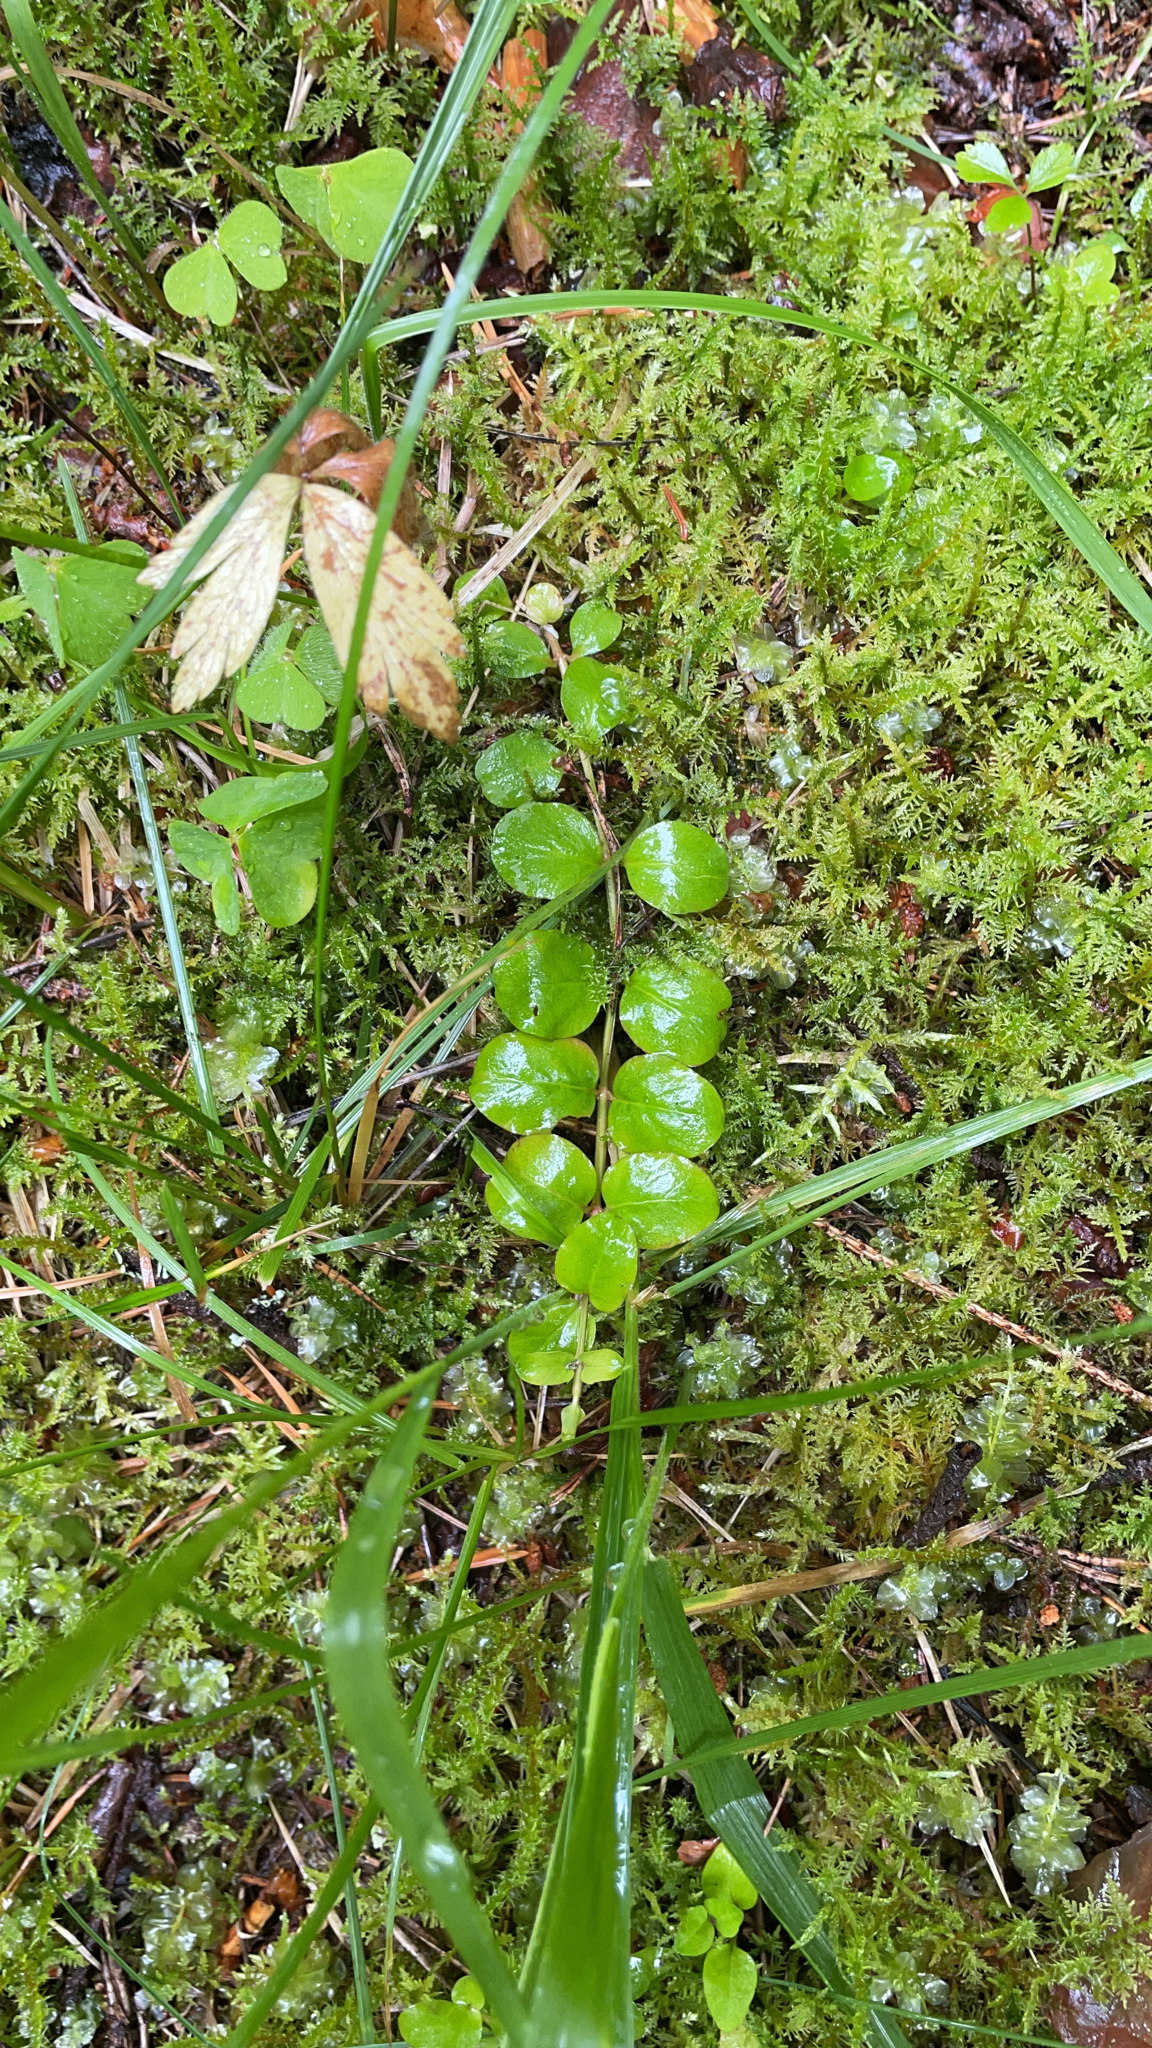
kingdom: Plantae
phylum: Tracheophyta
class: Magnoliopsida
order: Ericales
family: Primulaceae
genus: Lysimachia
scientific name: Lysimachia nummularia
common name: Moneywort
